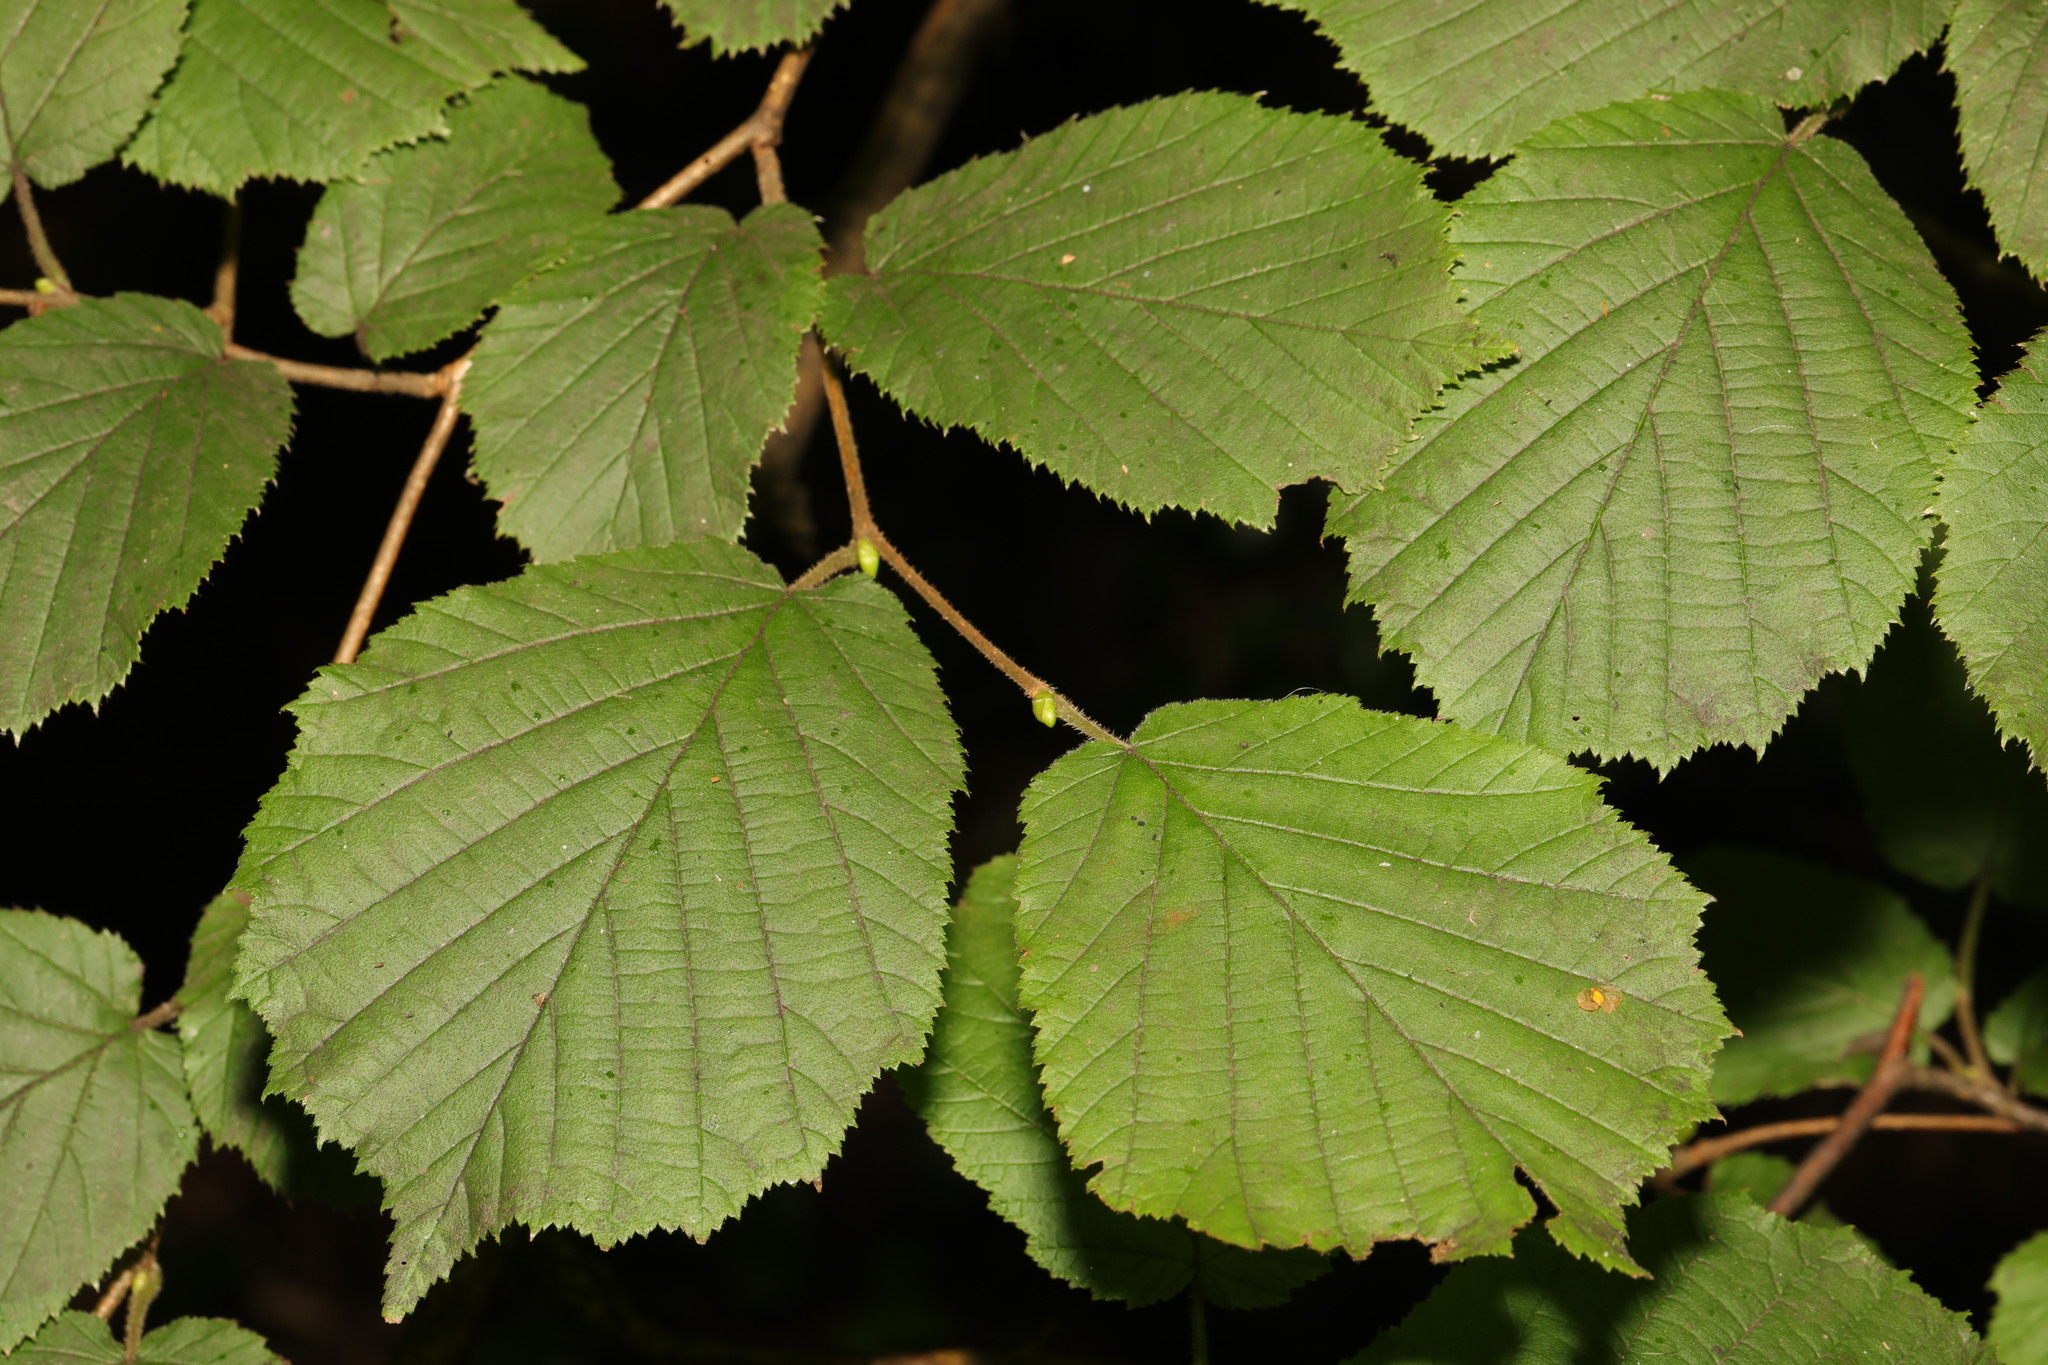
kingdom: Plantae
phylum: Tracheophyta
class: Magnoliopsida
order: Fagales
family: Betulaceae
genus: Corylus
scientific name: Corylus avellana
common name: European hazel
